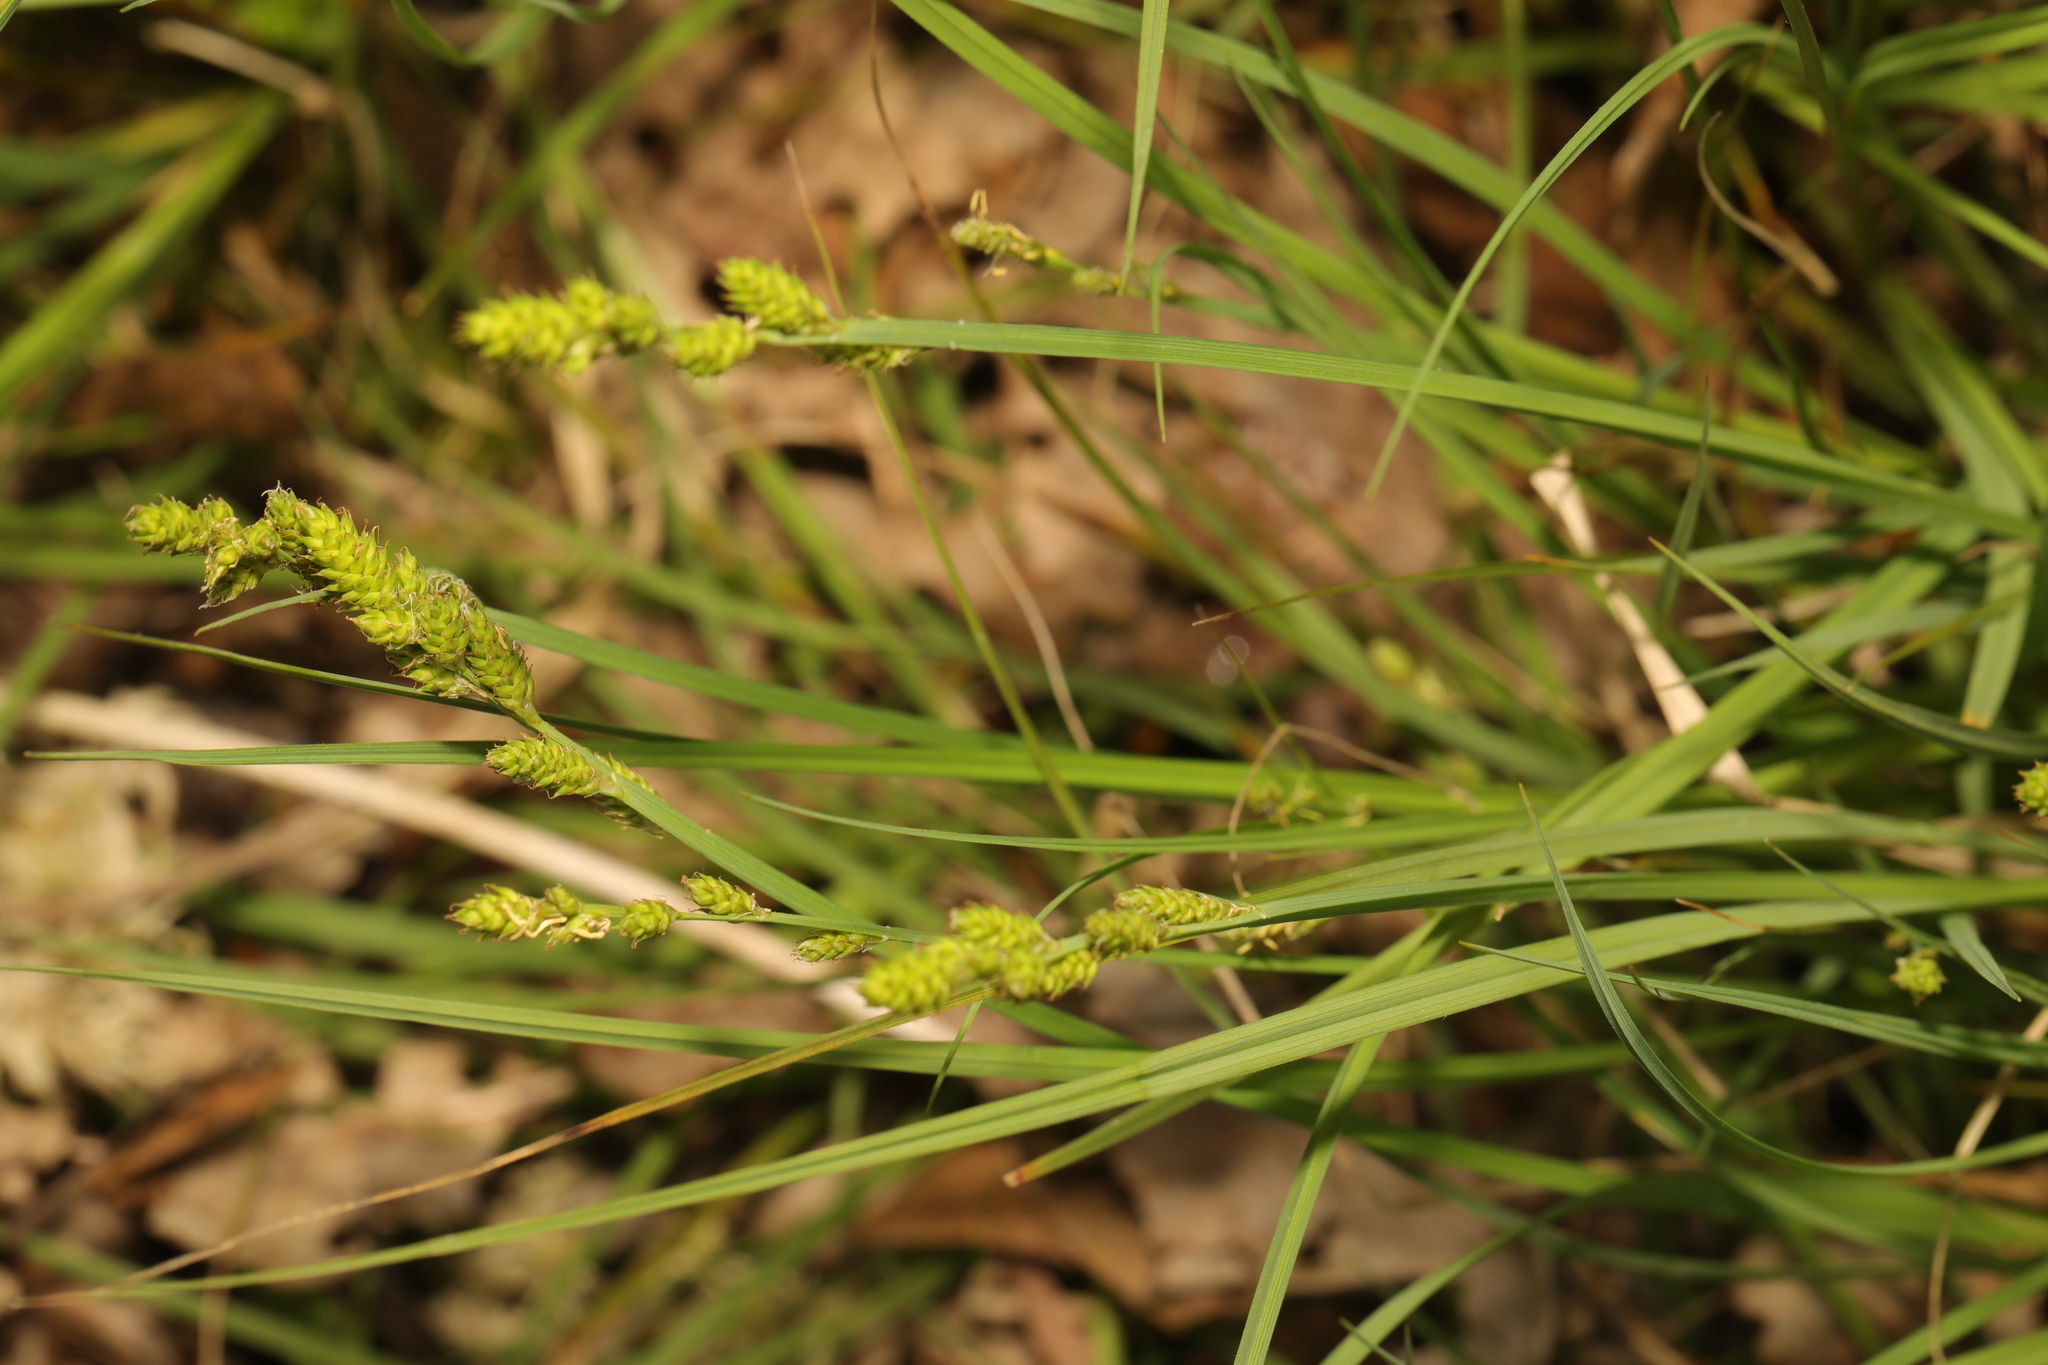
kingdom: Plantae
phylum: Tracheophyta
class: Liliopsida
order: Poales
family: Cyperaceae
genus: Carex
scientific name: Carex canescens
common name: White sedge
